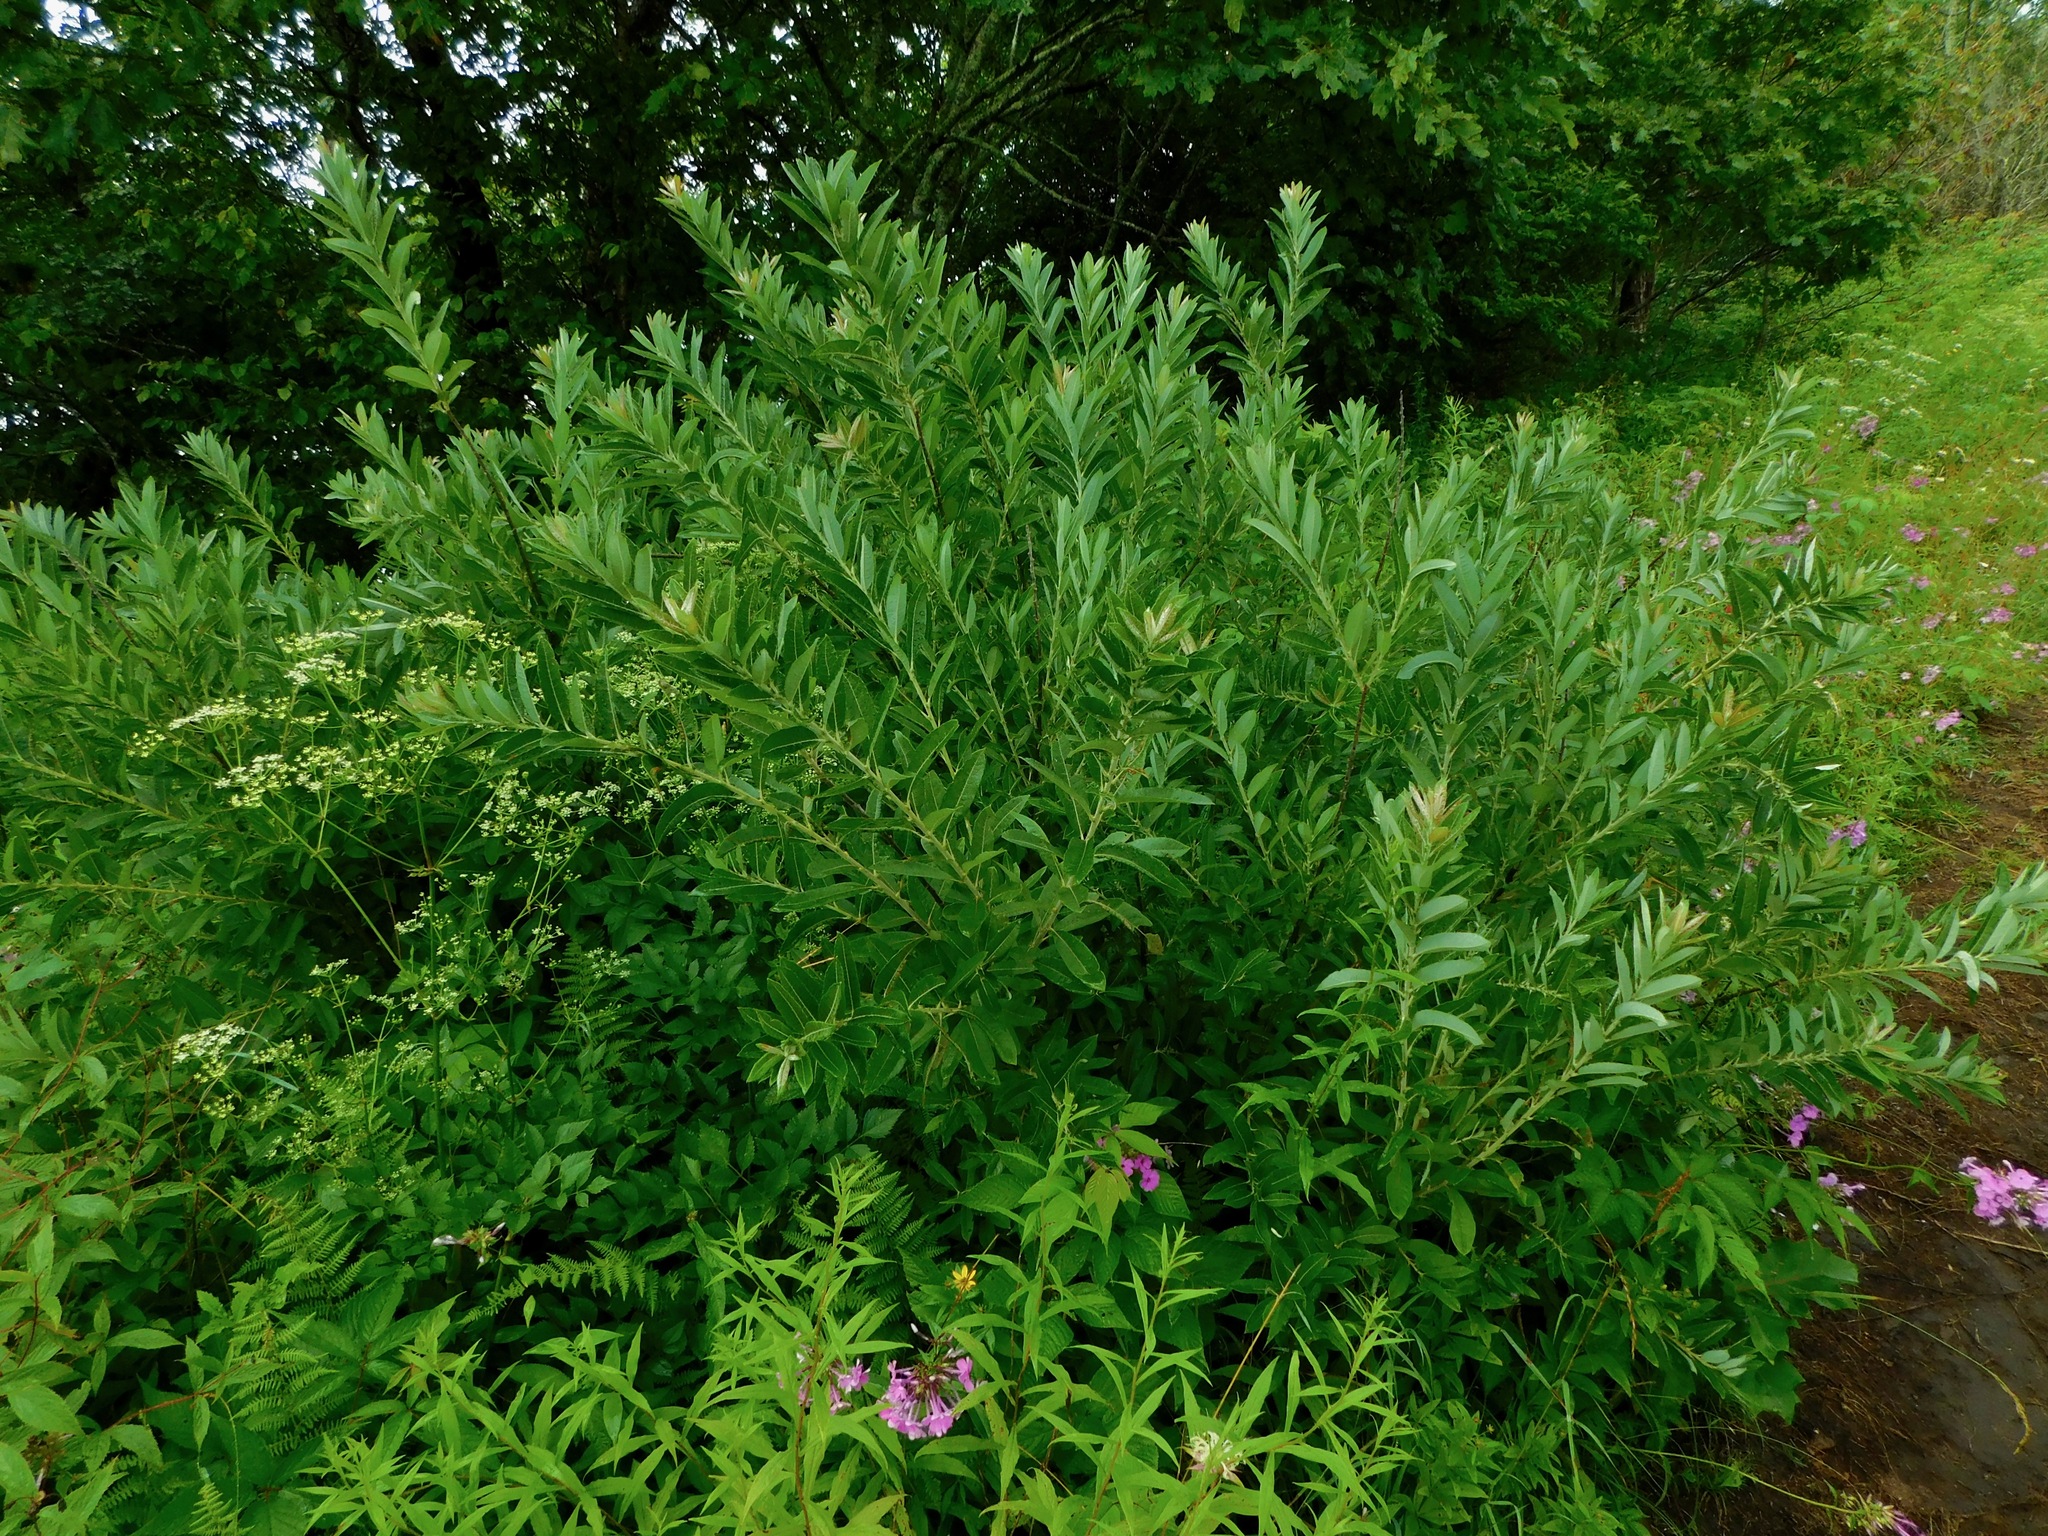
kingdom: Plantae
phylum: Tracheophyta
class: Magnoliopsida
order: Malpighiales
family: Salicaceae
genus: Salix
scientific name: Salix humilis
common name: Prairie willow
